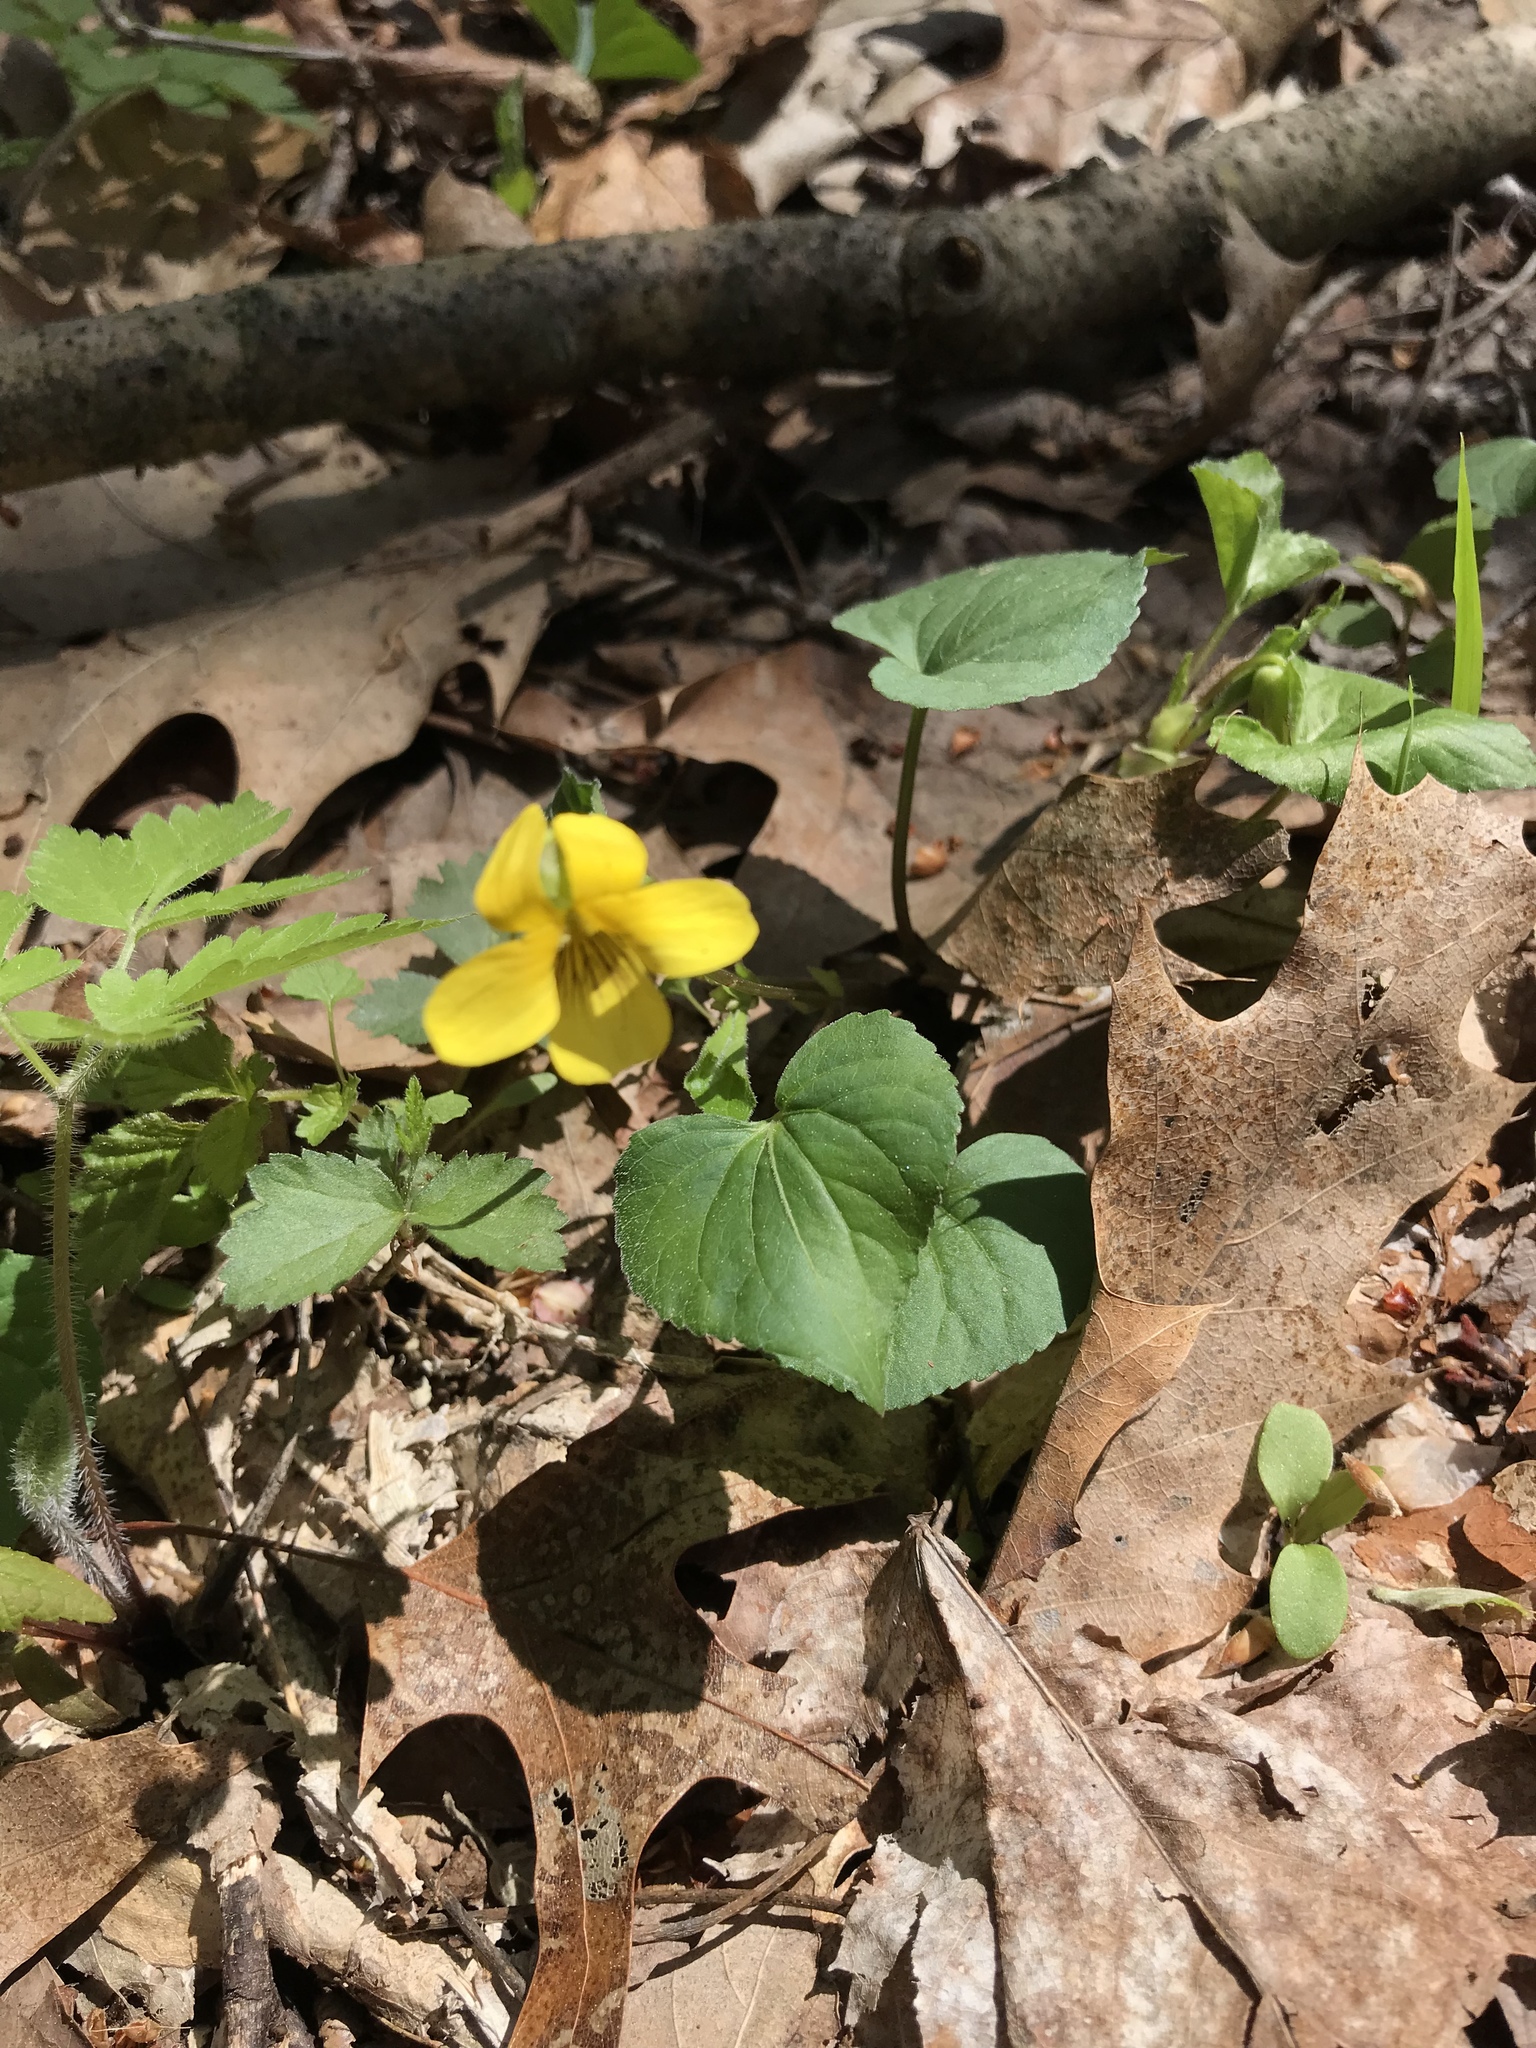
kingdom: Plantae
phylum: Tracheophyta
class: Magnoliopsida
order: Malpighiales
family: Violaceae
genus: Viola
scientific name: Viola eriocarpa
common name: Smooth yellow violet
